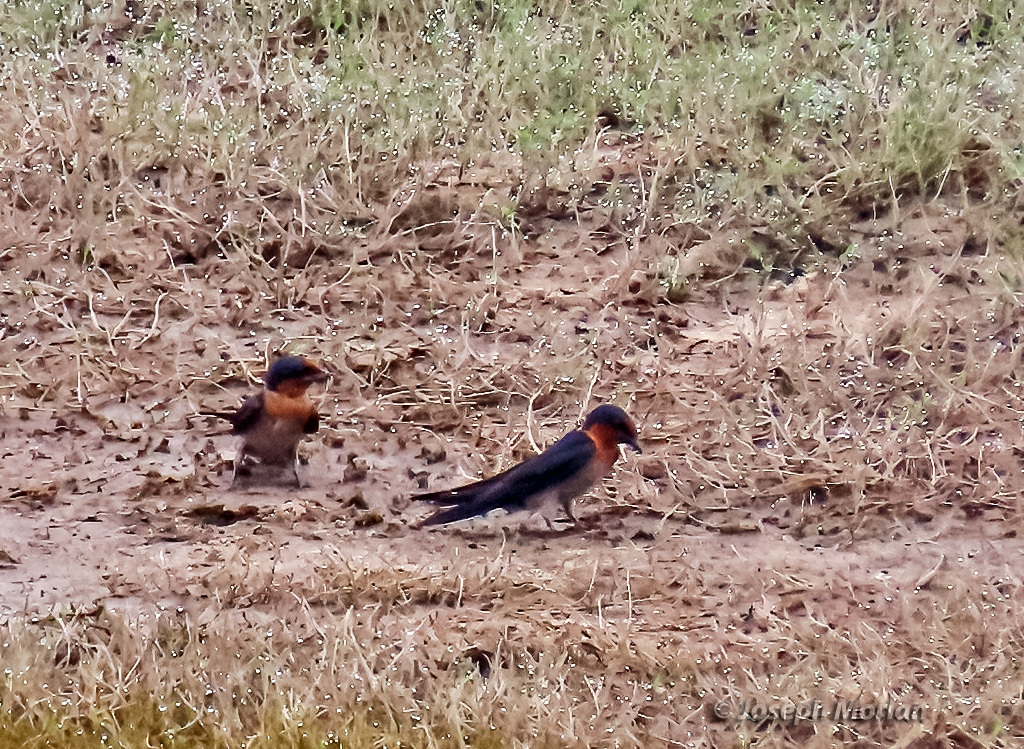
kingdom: Animalia
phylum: Chordata
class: Aves
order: Passeriformes
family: Hirundinidae
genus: Hirundo
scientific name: Hirundo tahitica
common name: Pacific swallow
